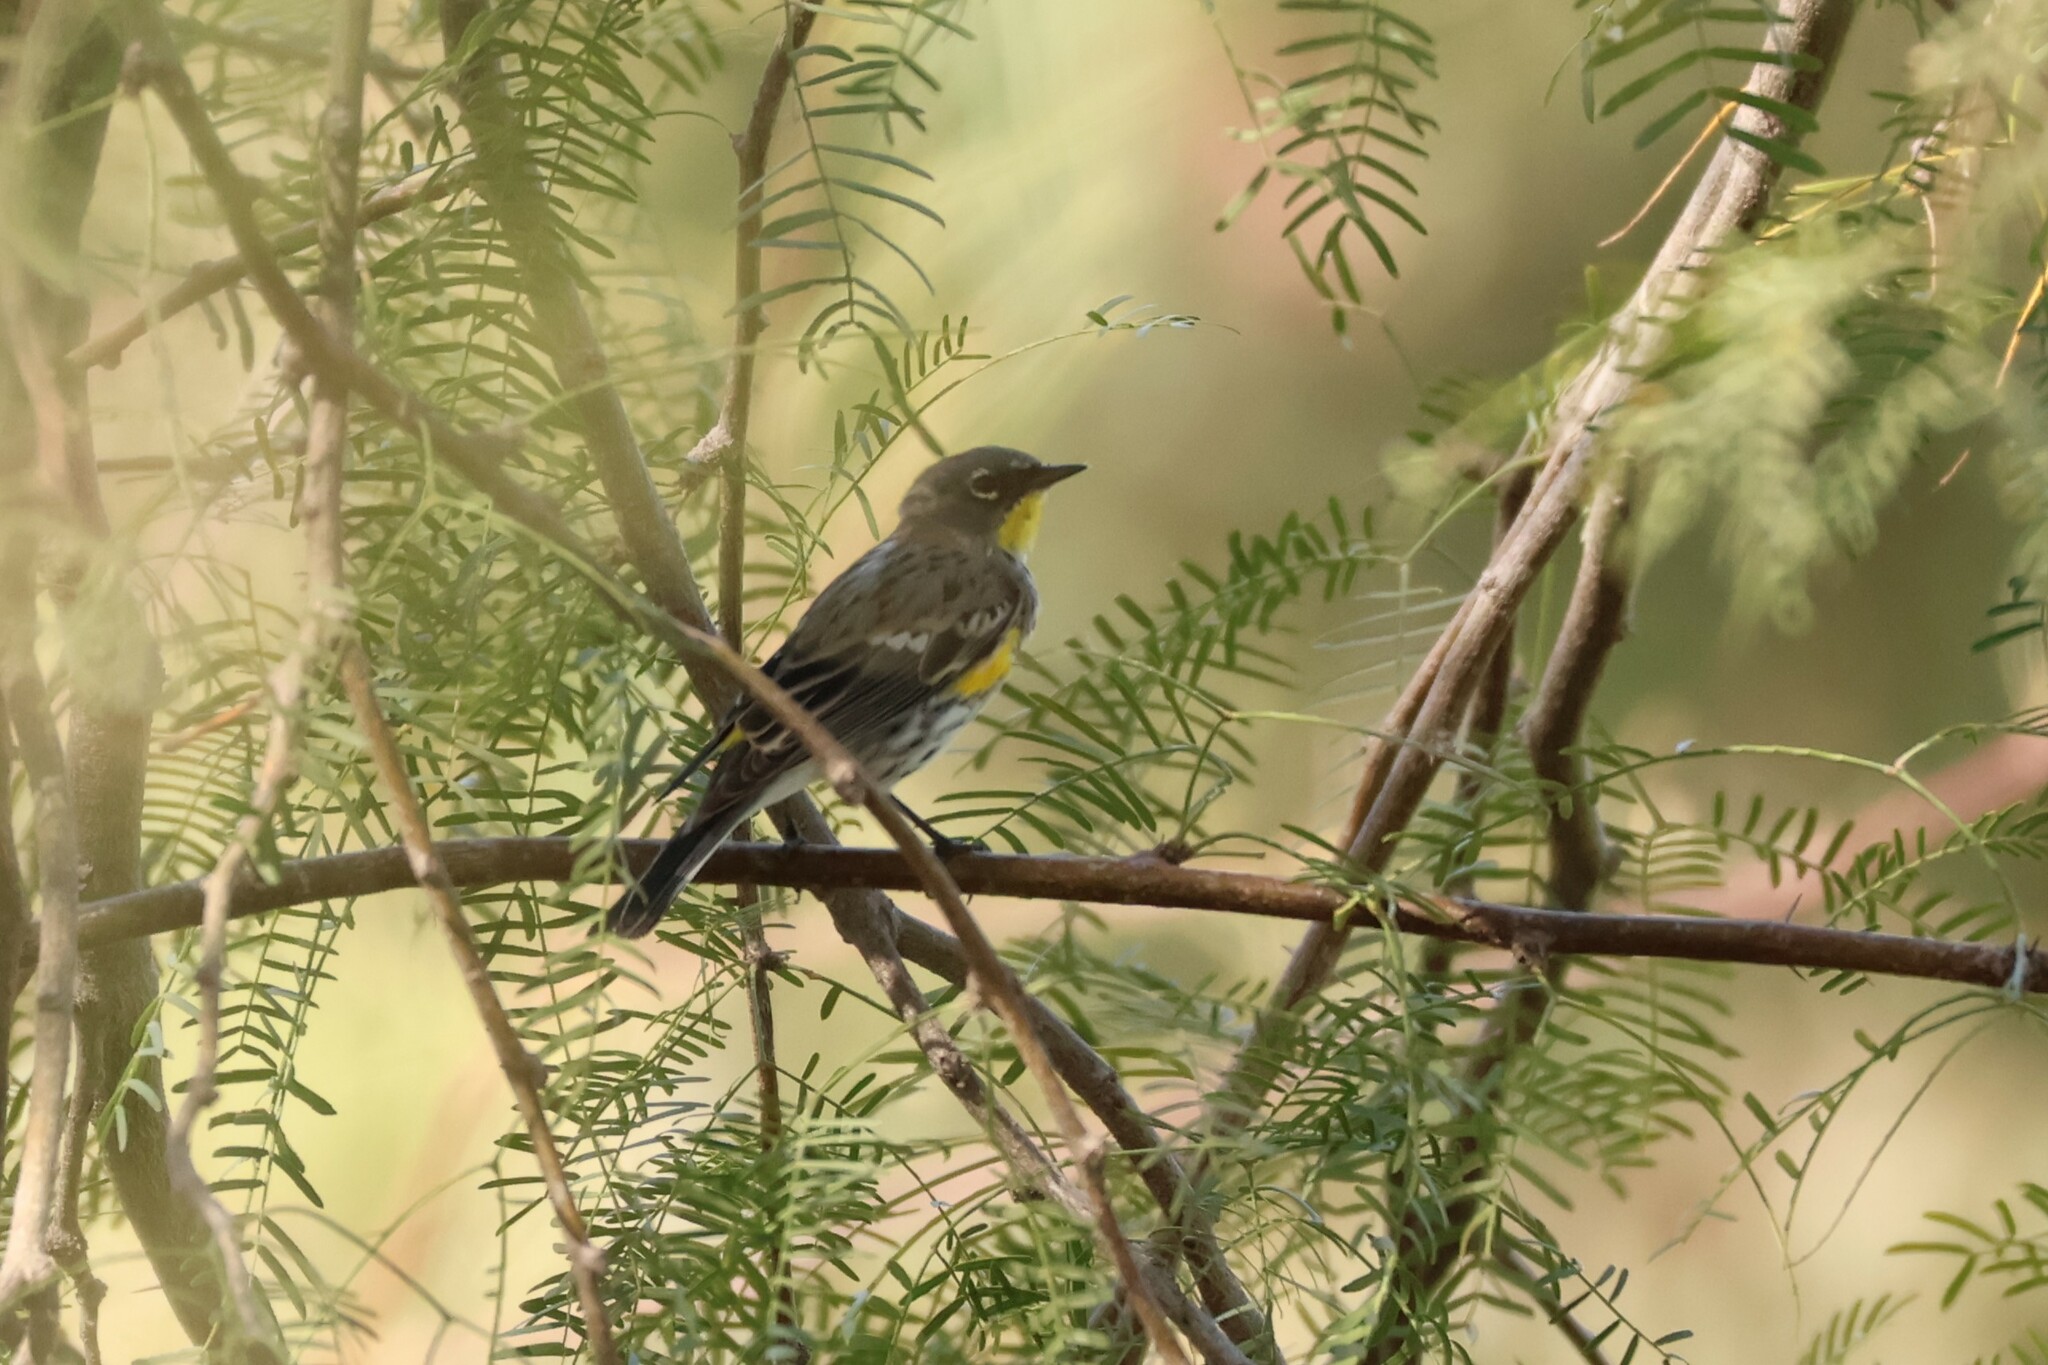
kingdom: Animalia
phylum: Chordata
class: Aves
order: Passeriformes
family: Parulidae
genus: Setophaga
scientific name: Setophaga coronata
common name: Myrtle warbler
